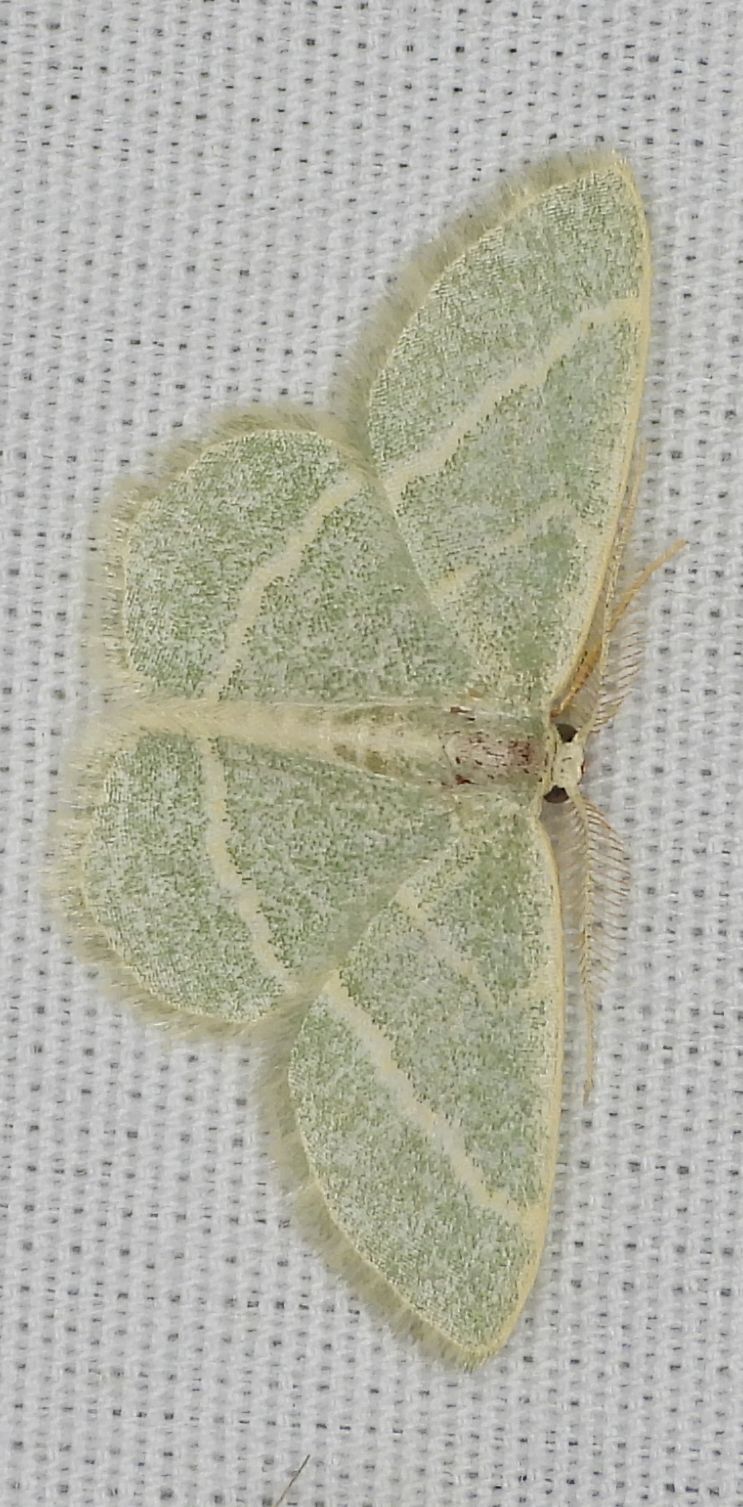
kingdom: Animalia
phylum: Arthropoda
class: Insecta
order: Lepidoptera
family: Geometridae
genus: Chlorochlamys
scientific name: Chlorochlamys chloroleucaria
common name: Blackberry looper
